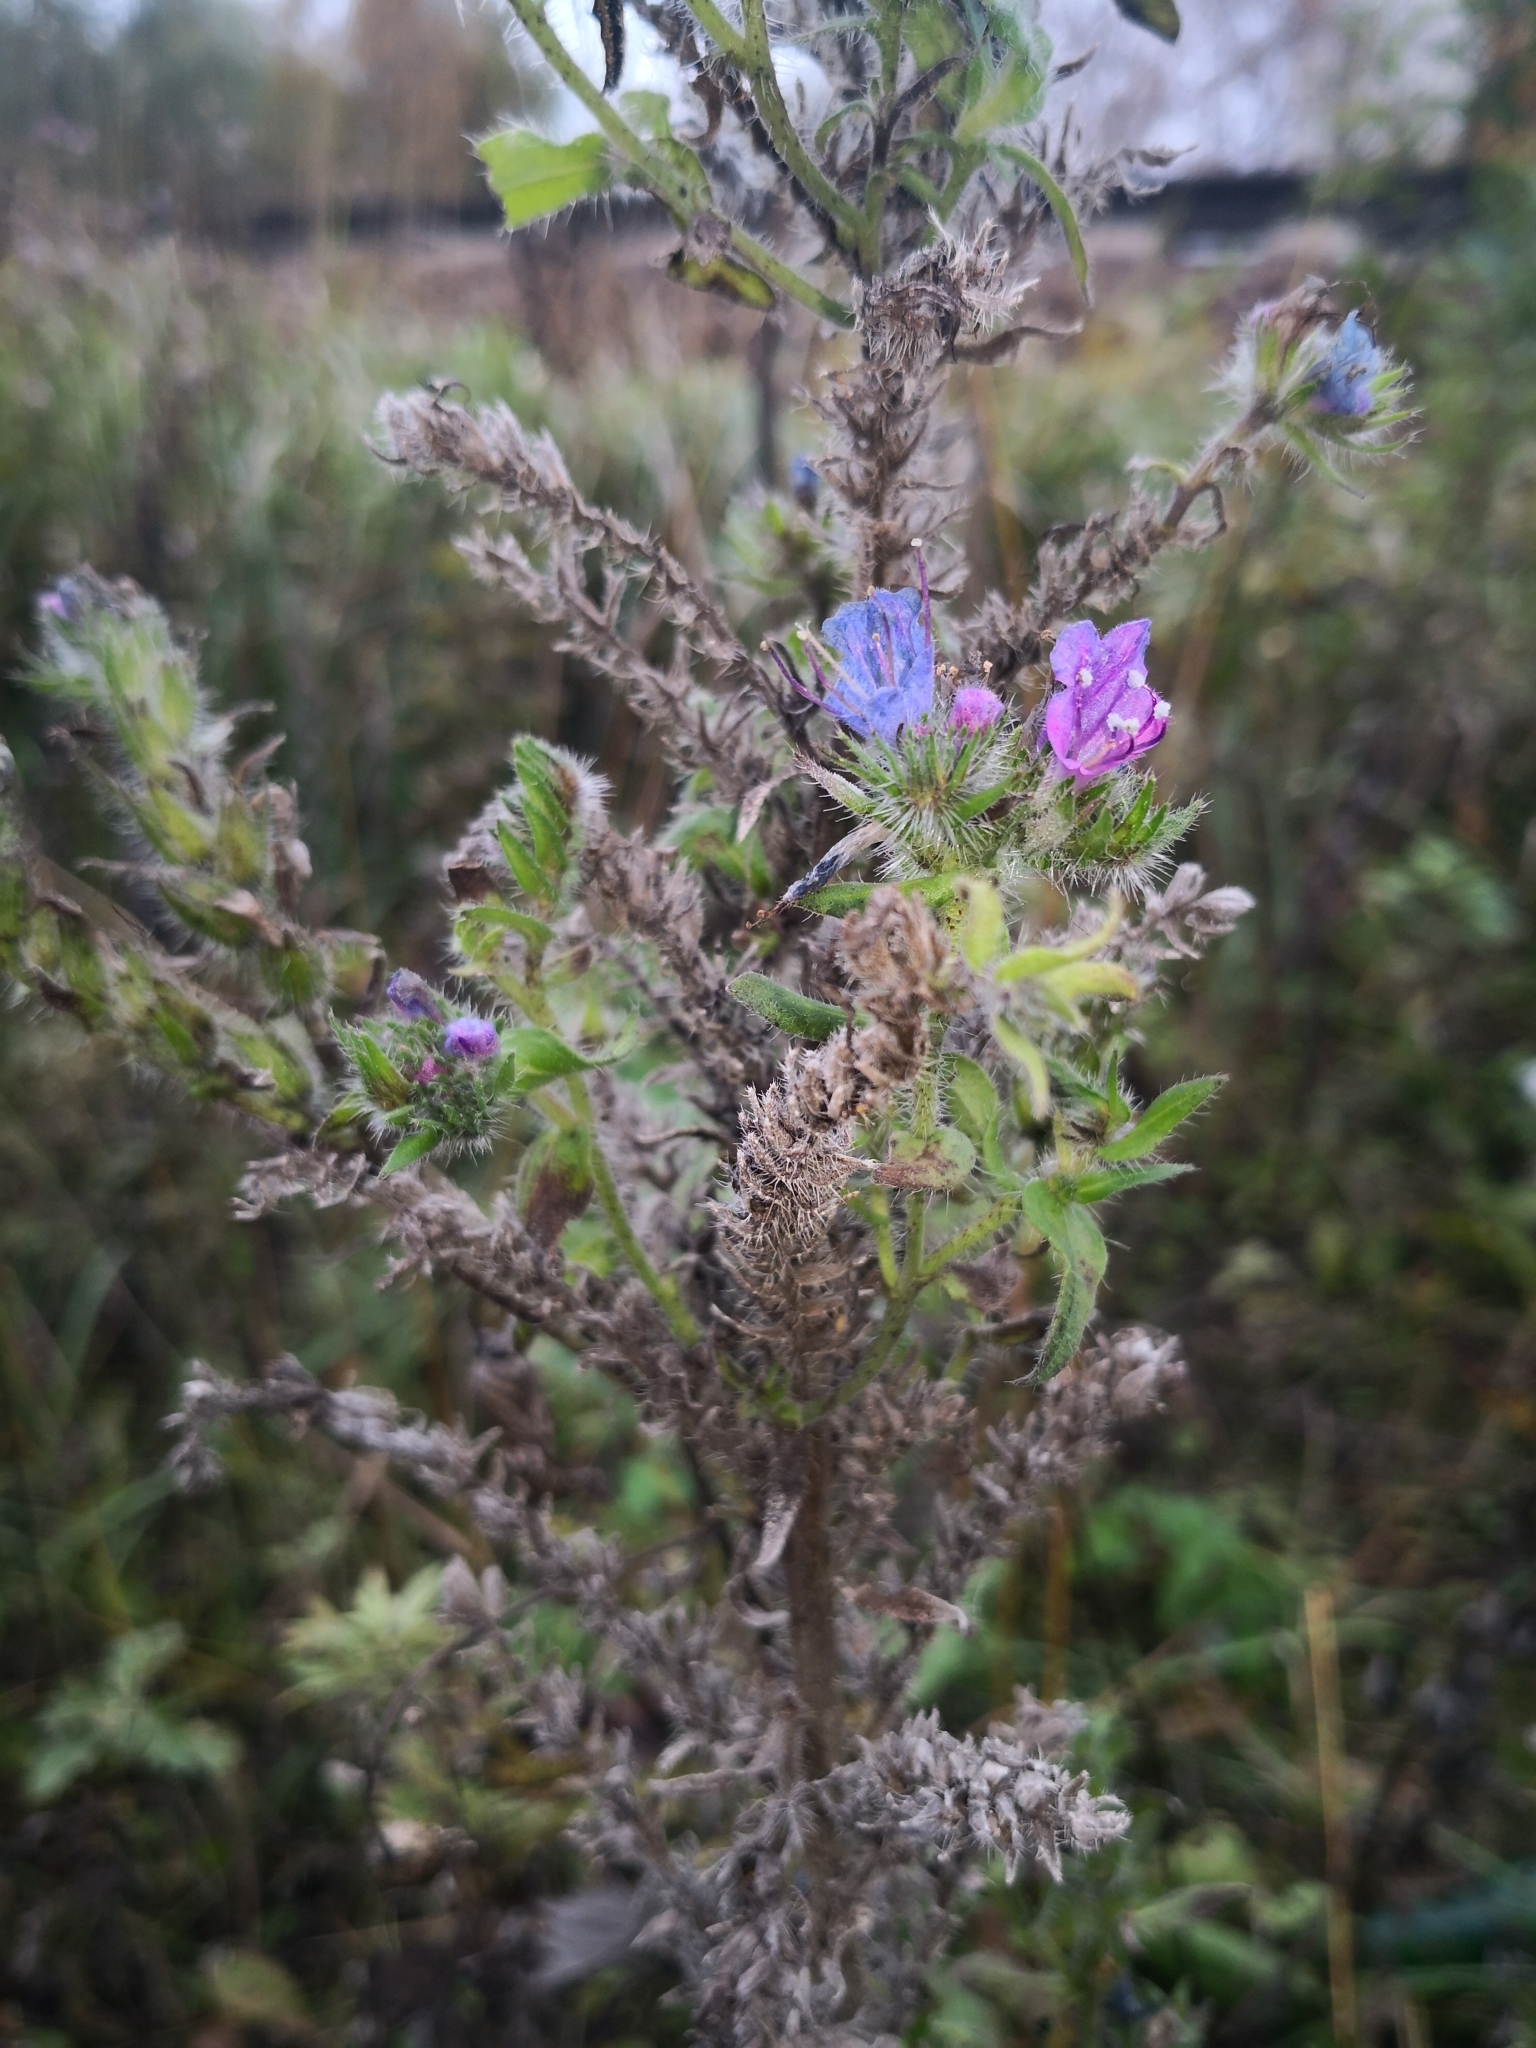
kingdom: Plantae
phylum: Tracheophyta
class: Magnoliopsida
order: Boraginales
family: Boraginaceae
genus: Echium
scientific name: Echium vulgare
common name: Common viper's bugloss
